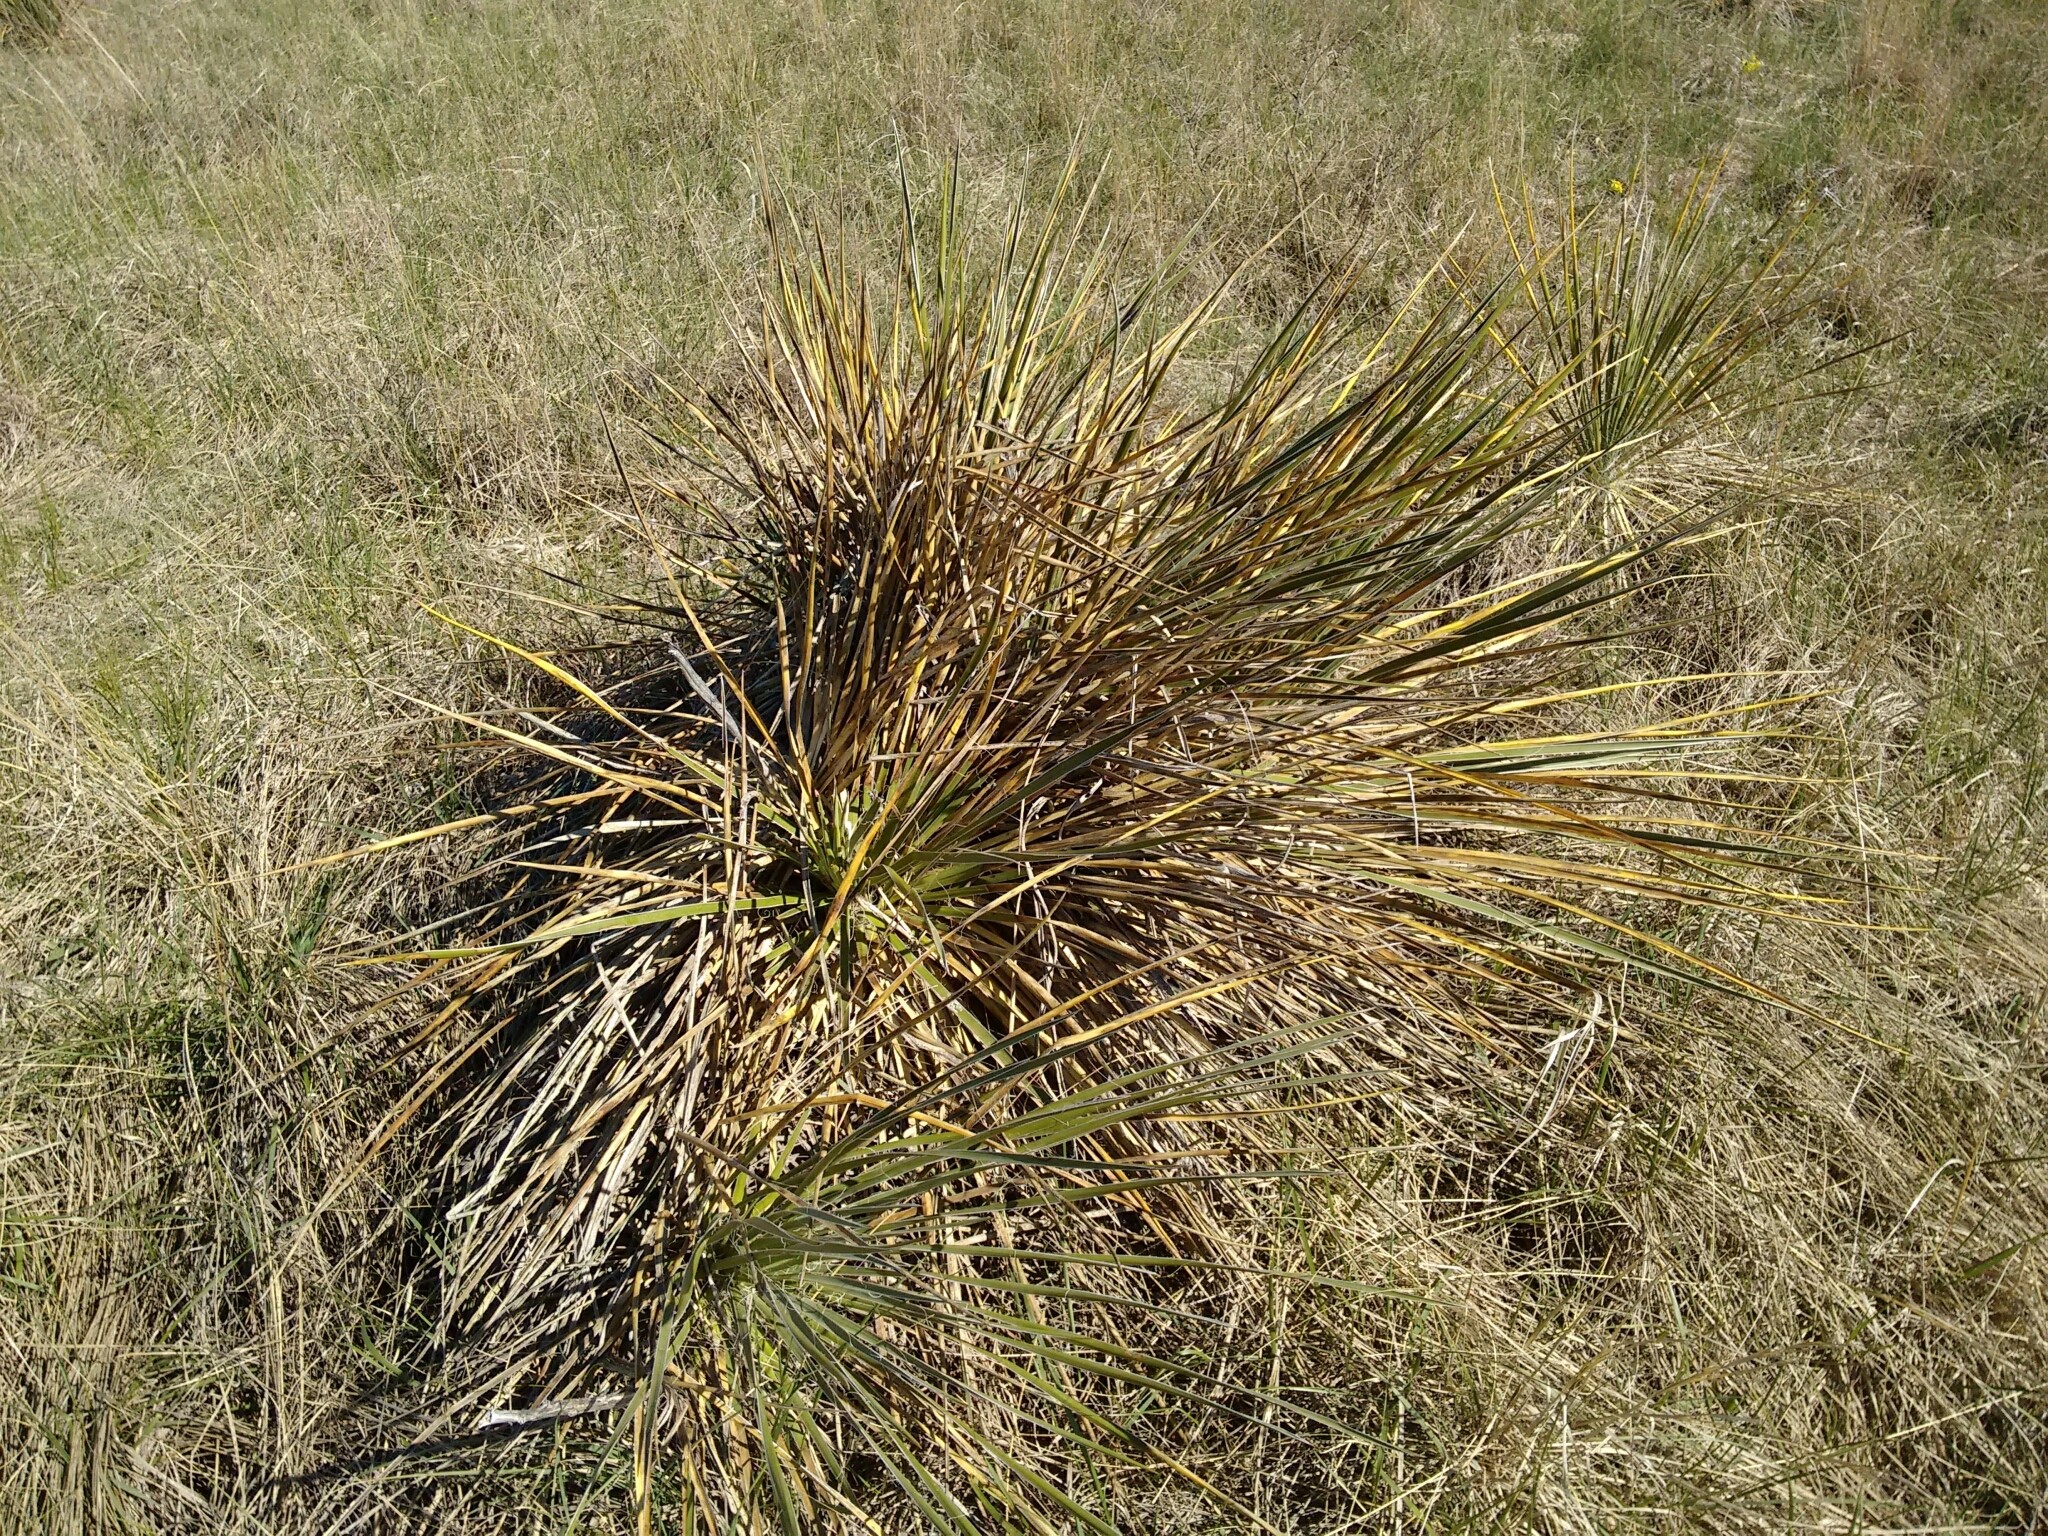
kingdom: Plantae
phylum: Tracheophyta
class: Liliopsida
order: Asparagales
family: Asparagaceae
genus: Yucca
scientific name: Yucca glauca
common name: Great plains yucca
